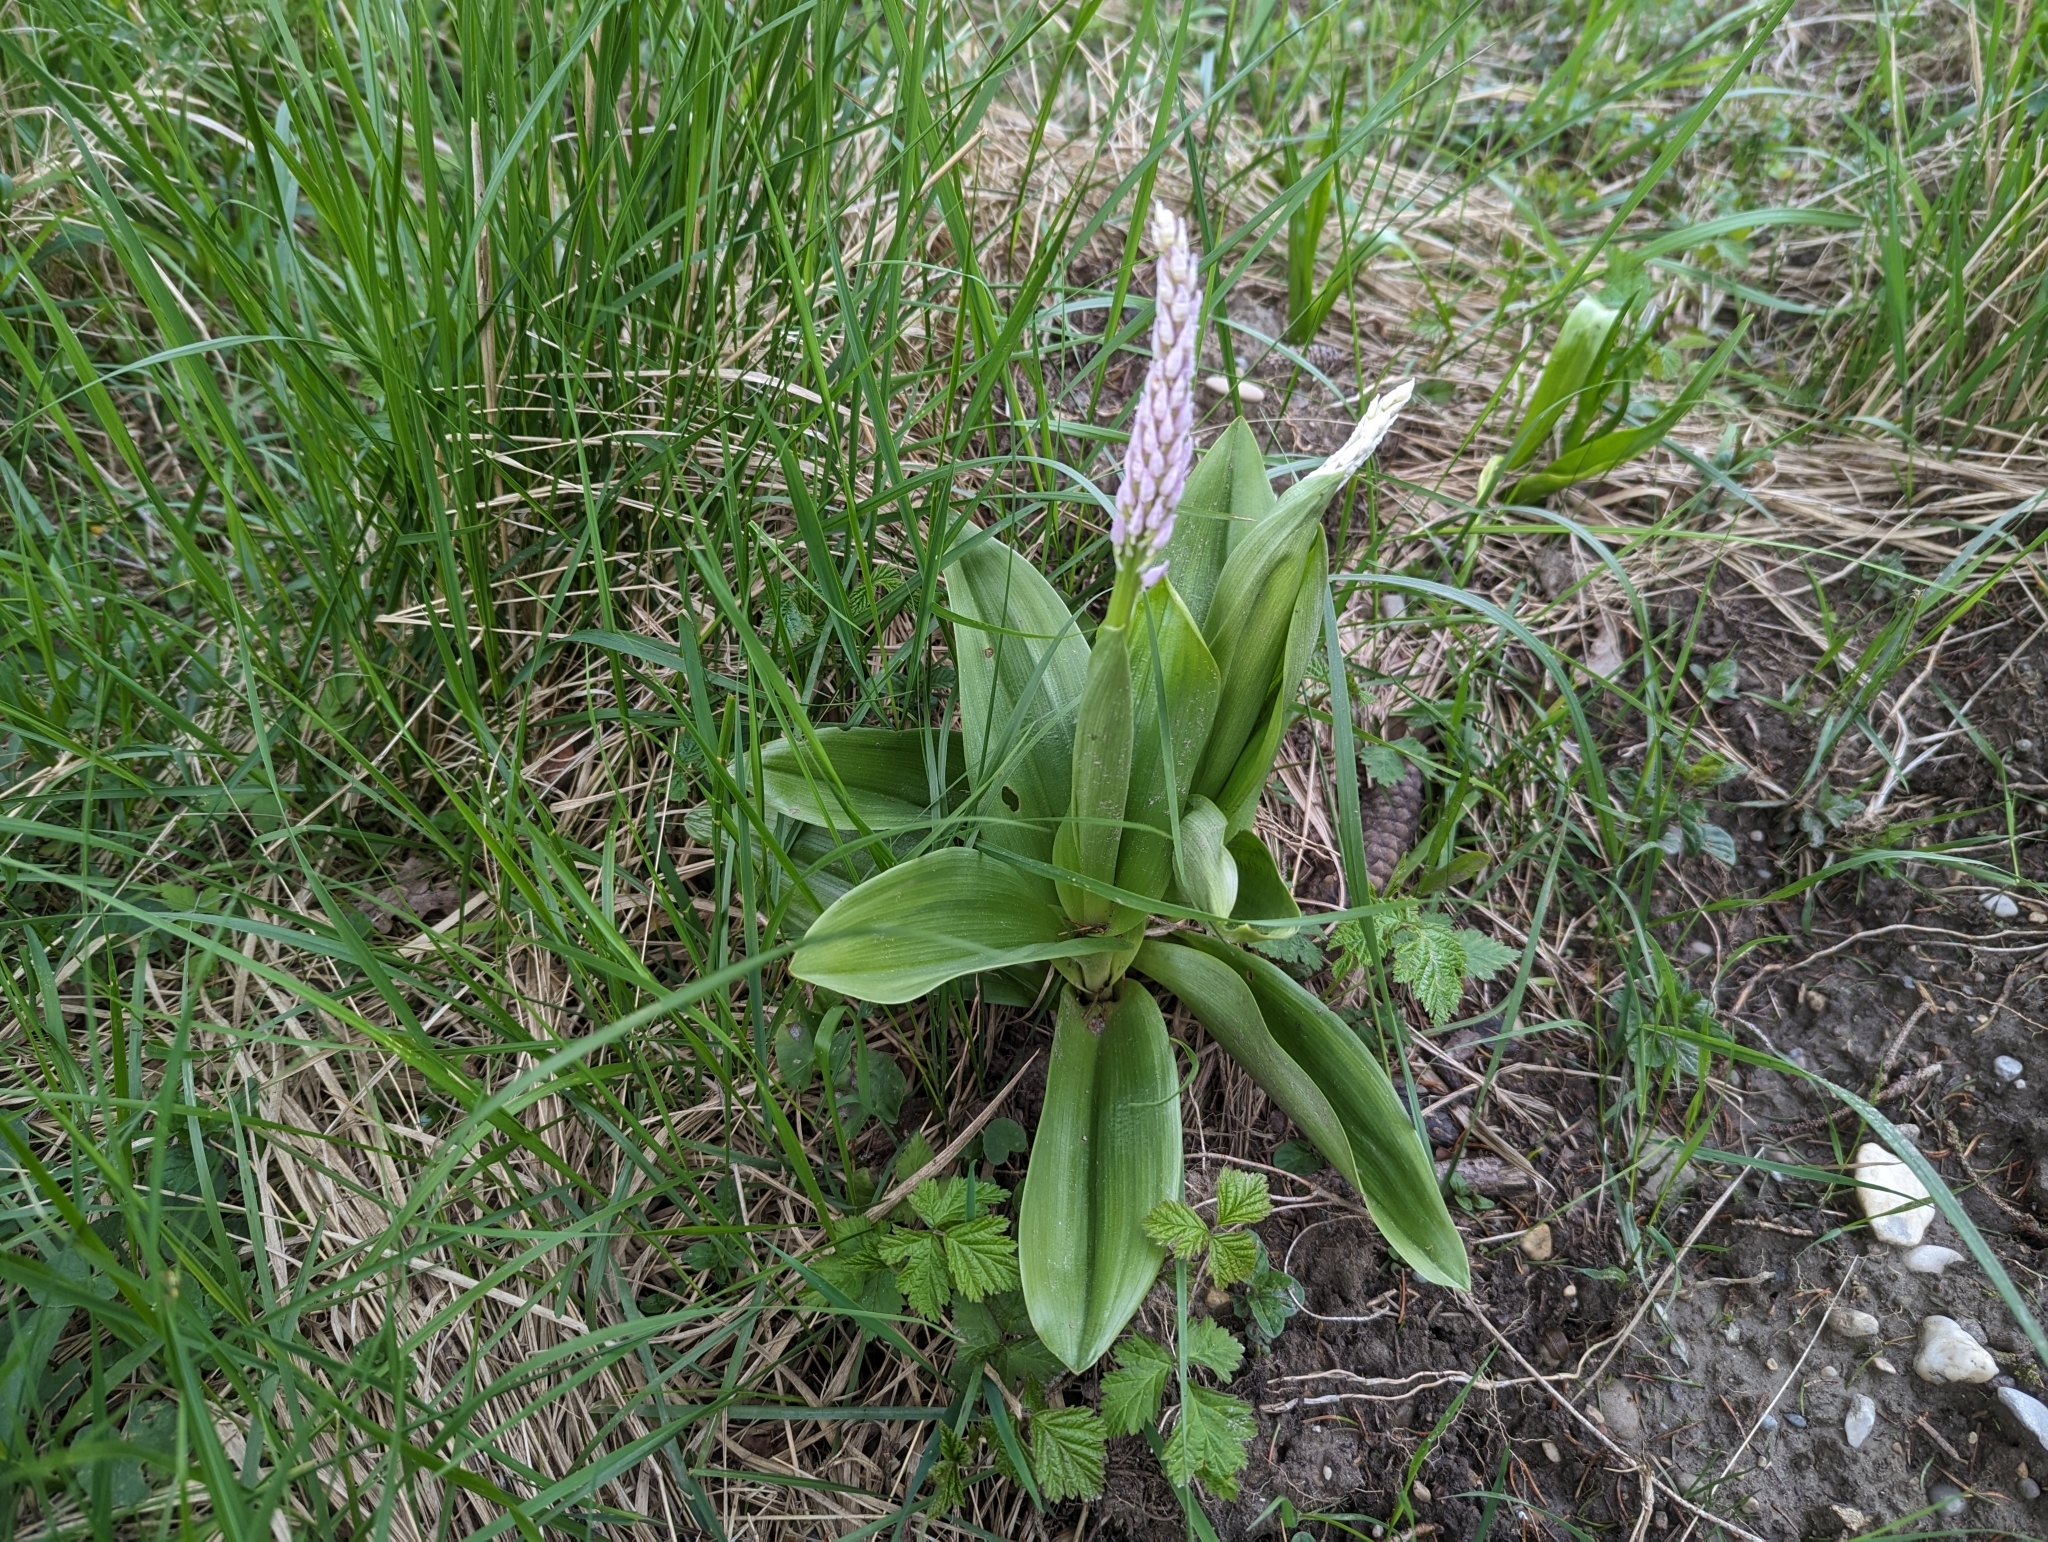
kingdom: Plantae
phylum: Tracheophyta
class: Liliopsida
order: Asparagales
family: Orchidaceae
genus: Orchis
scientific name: Orchis militaris
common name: Military orchid
